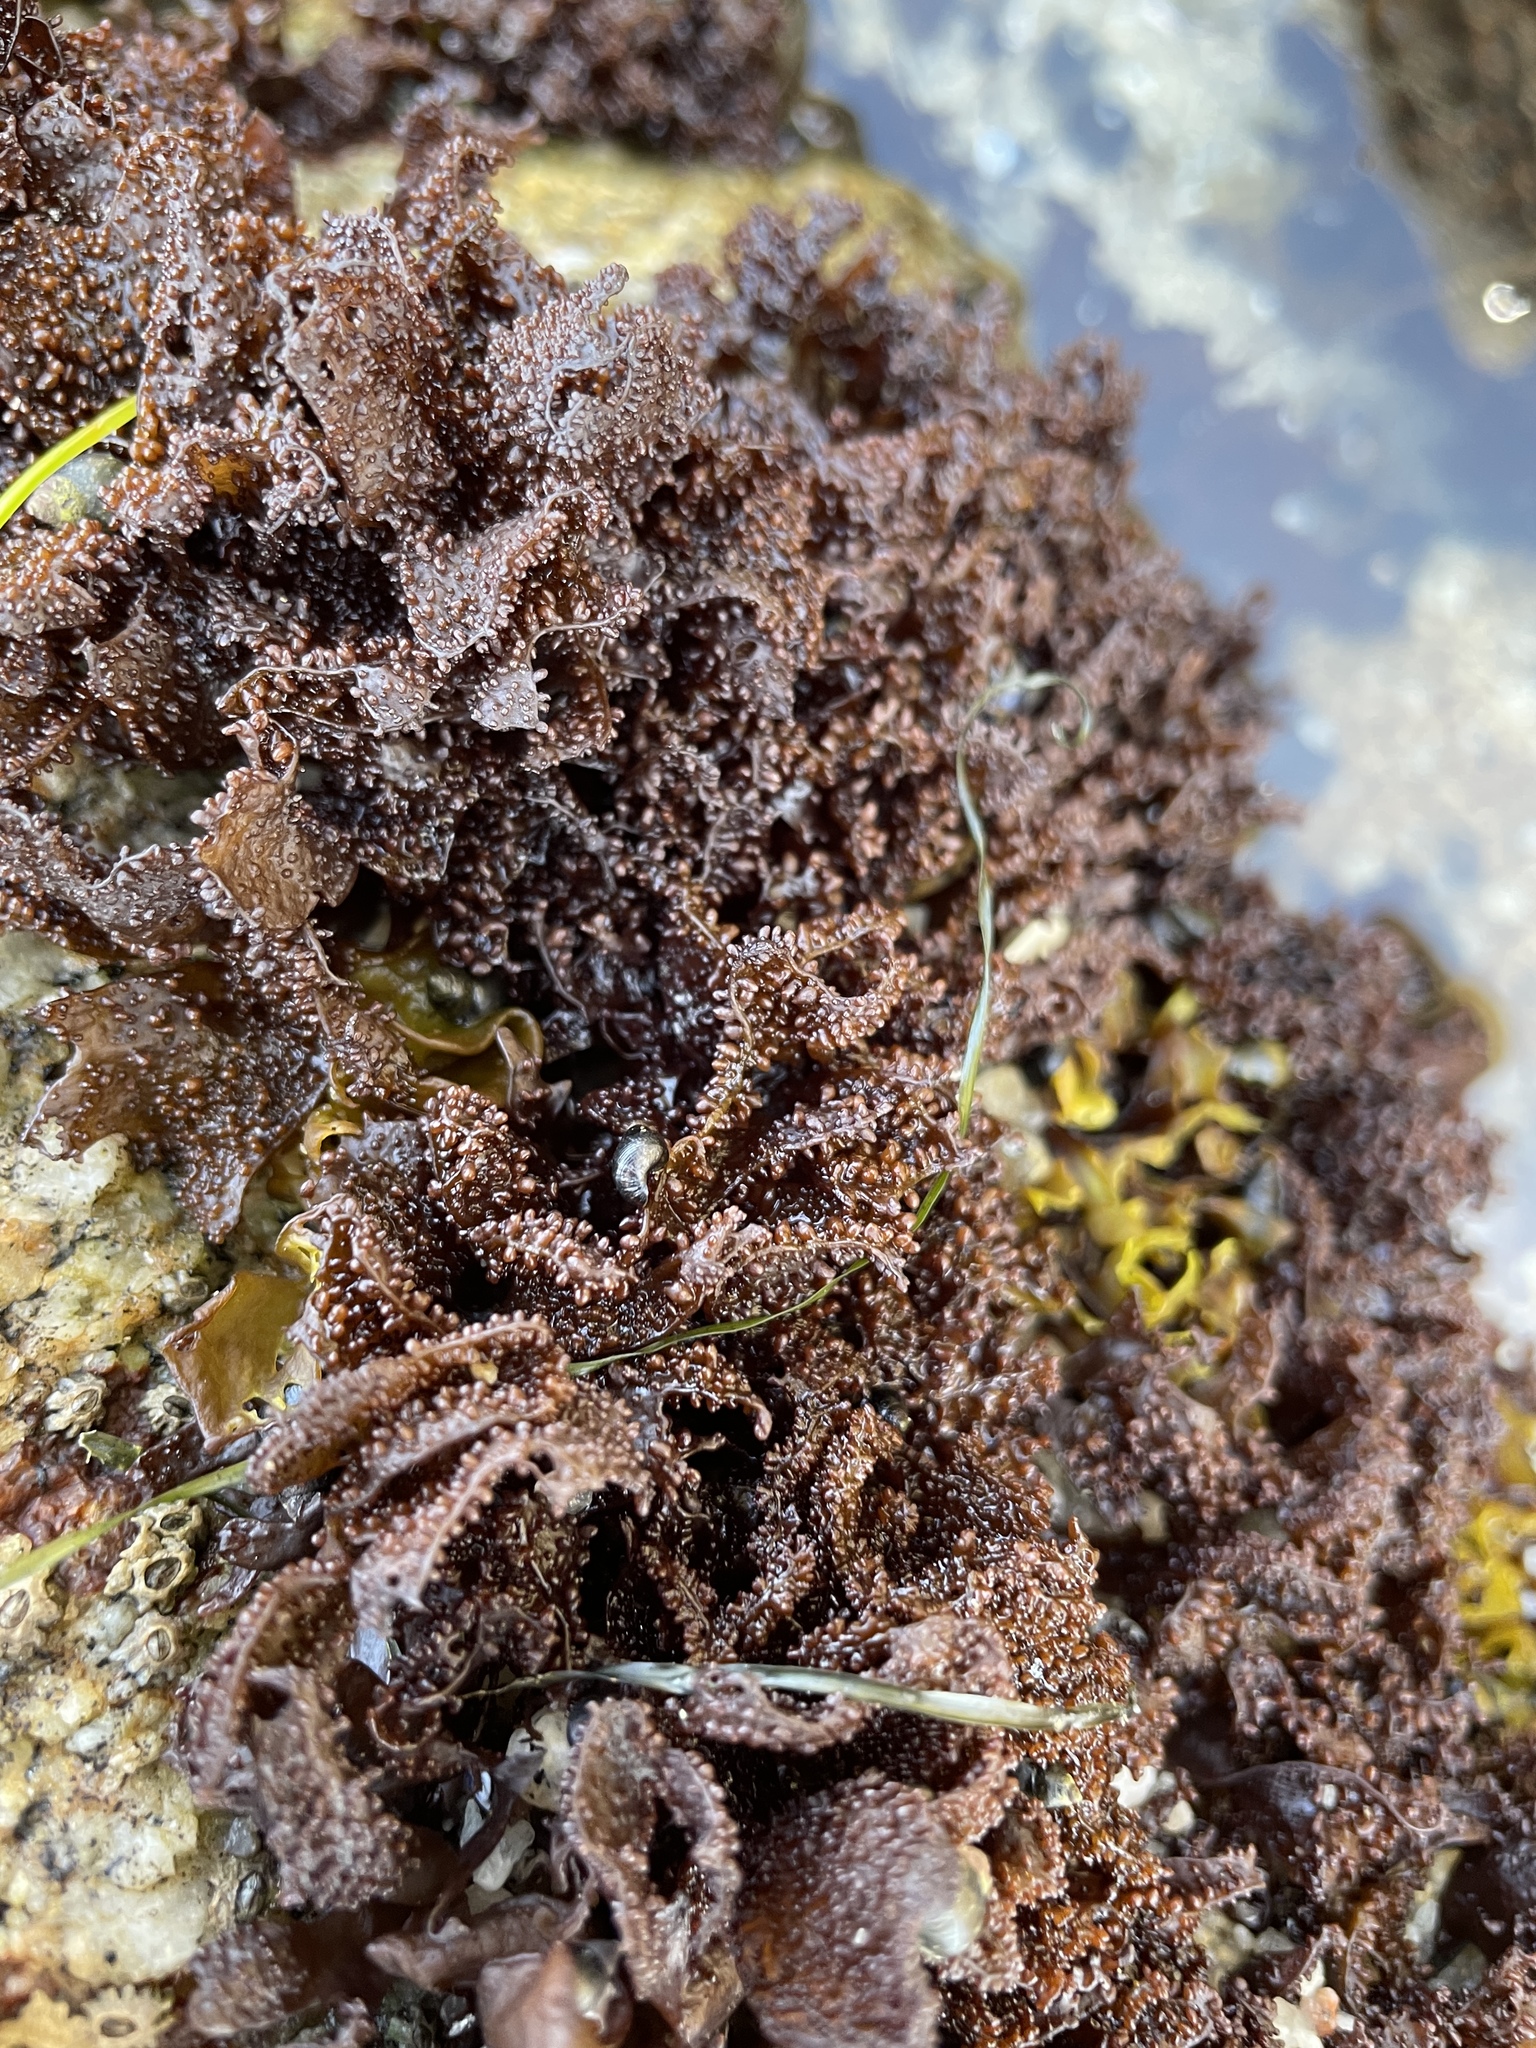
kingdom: Plantae
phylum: Rhodophyta
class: Florideophyceae
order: Gigartinales
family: Phyllophoraceae
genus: Mastocarpus
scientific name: Mastocarpus papillatus
